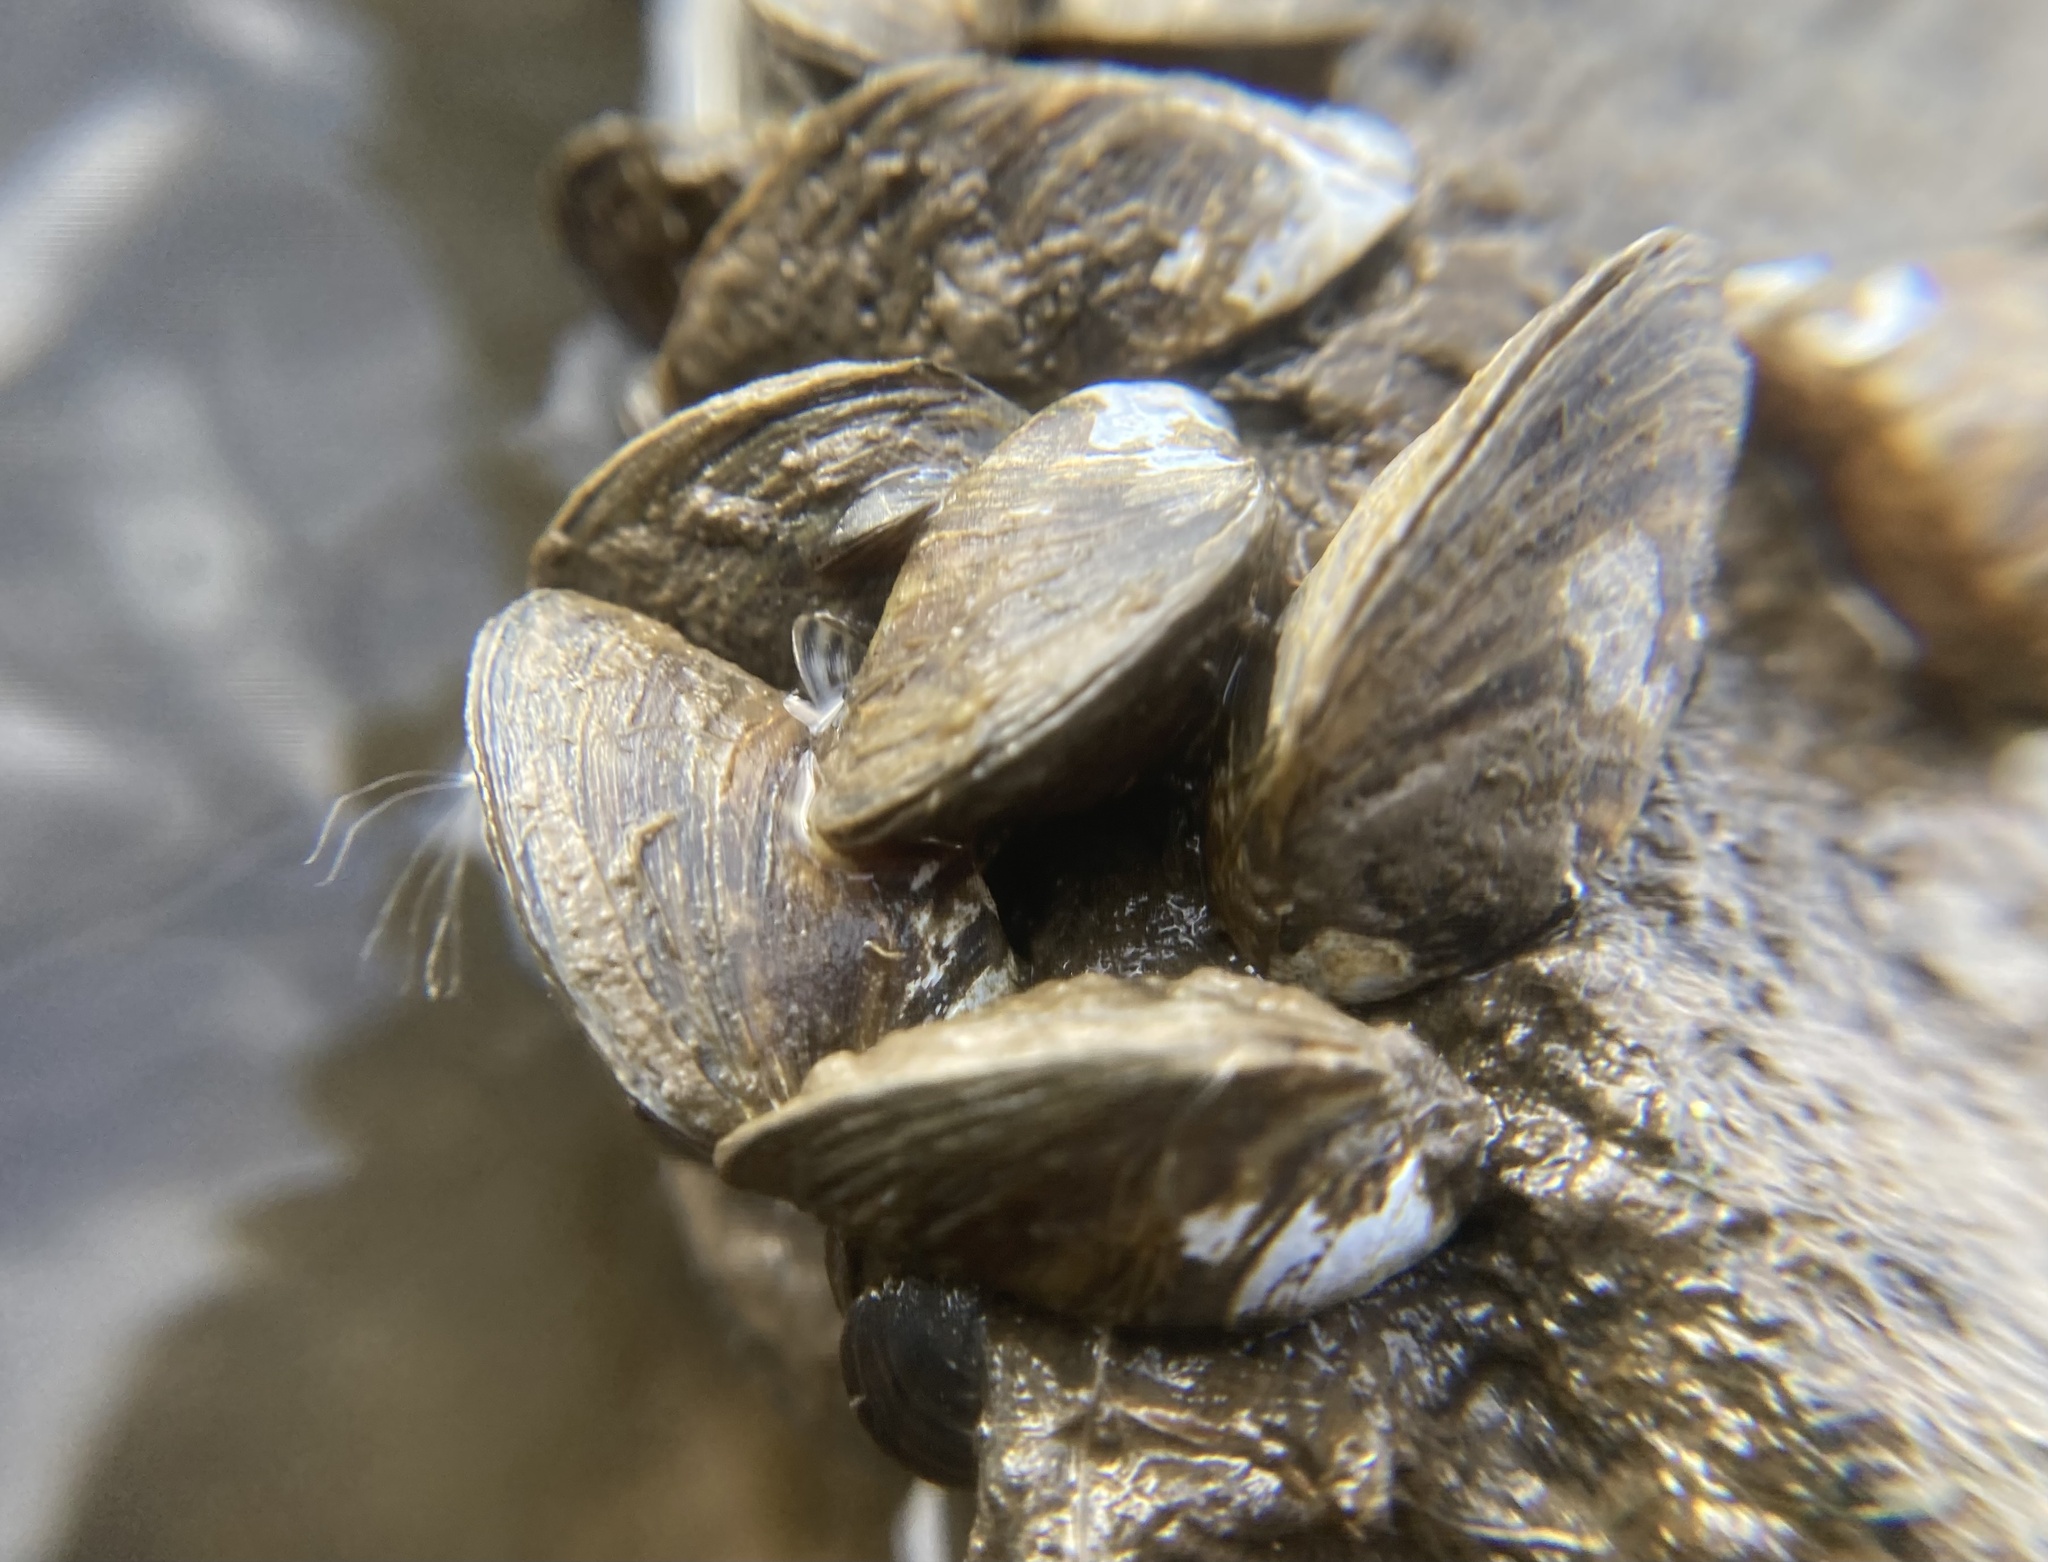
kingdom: Animalia
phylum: Mollusca
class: Bivalvia
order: Myida
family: Dreissenidae
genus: Dreissena
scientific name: Dreissena polymorpha
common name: Zebra mussel
